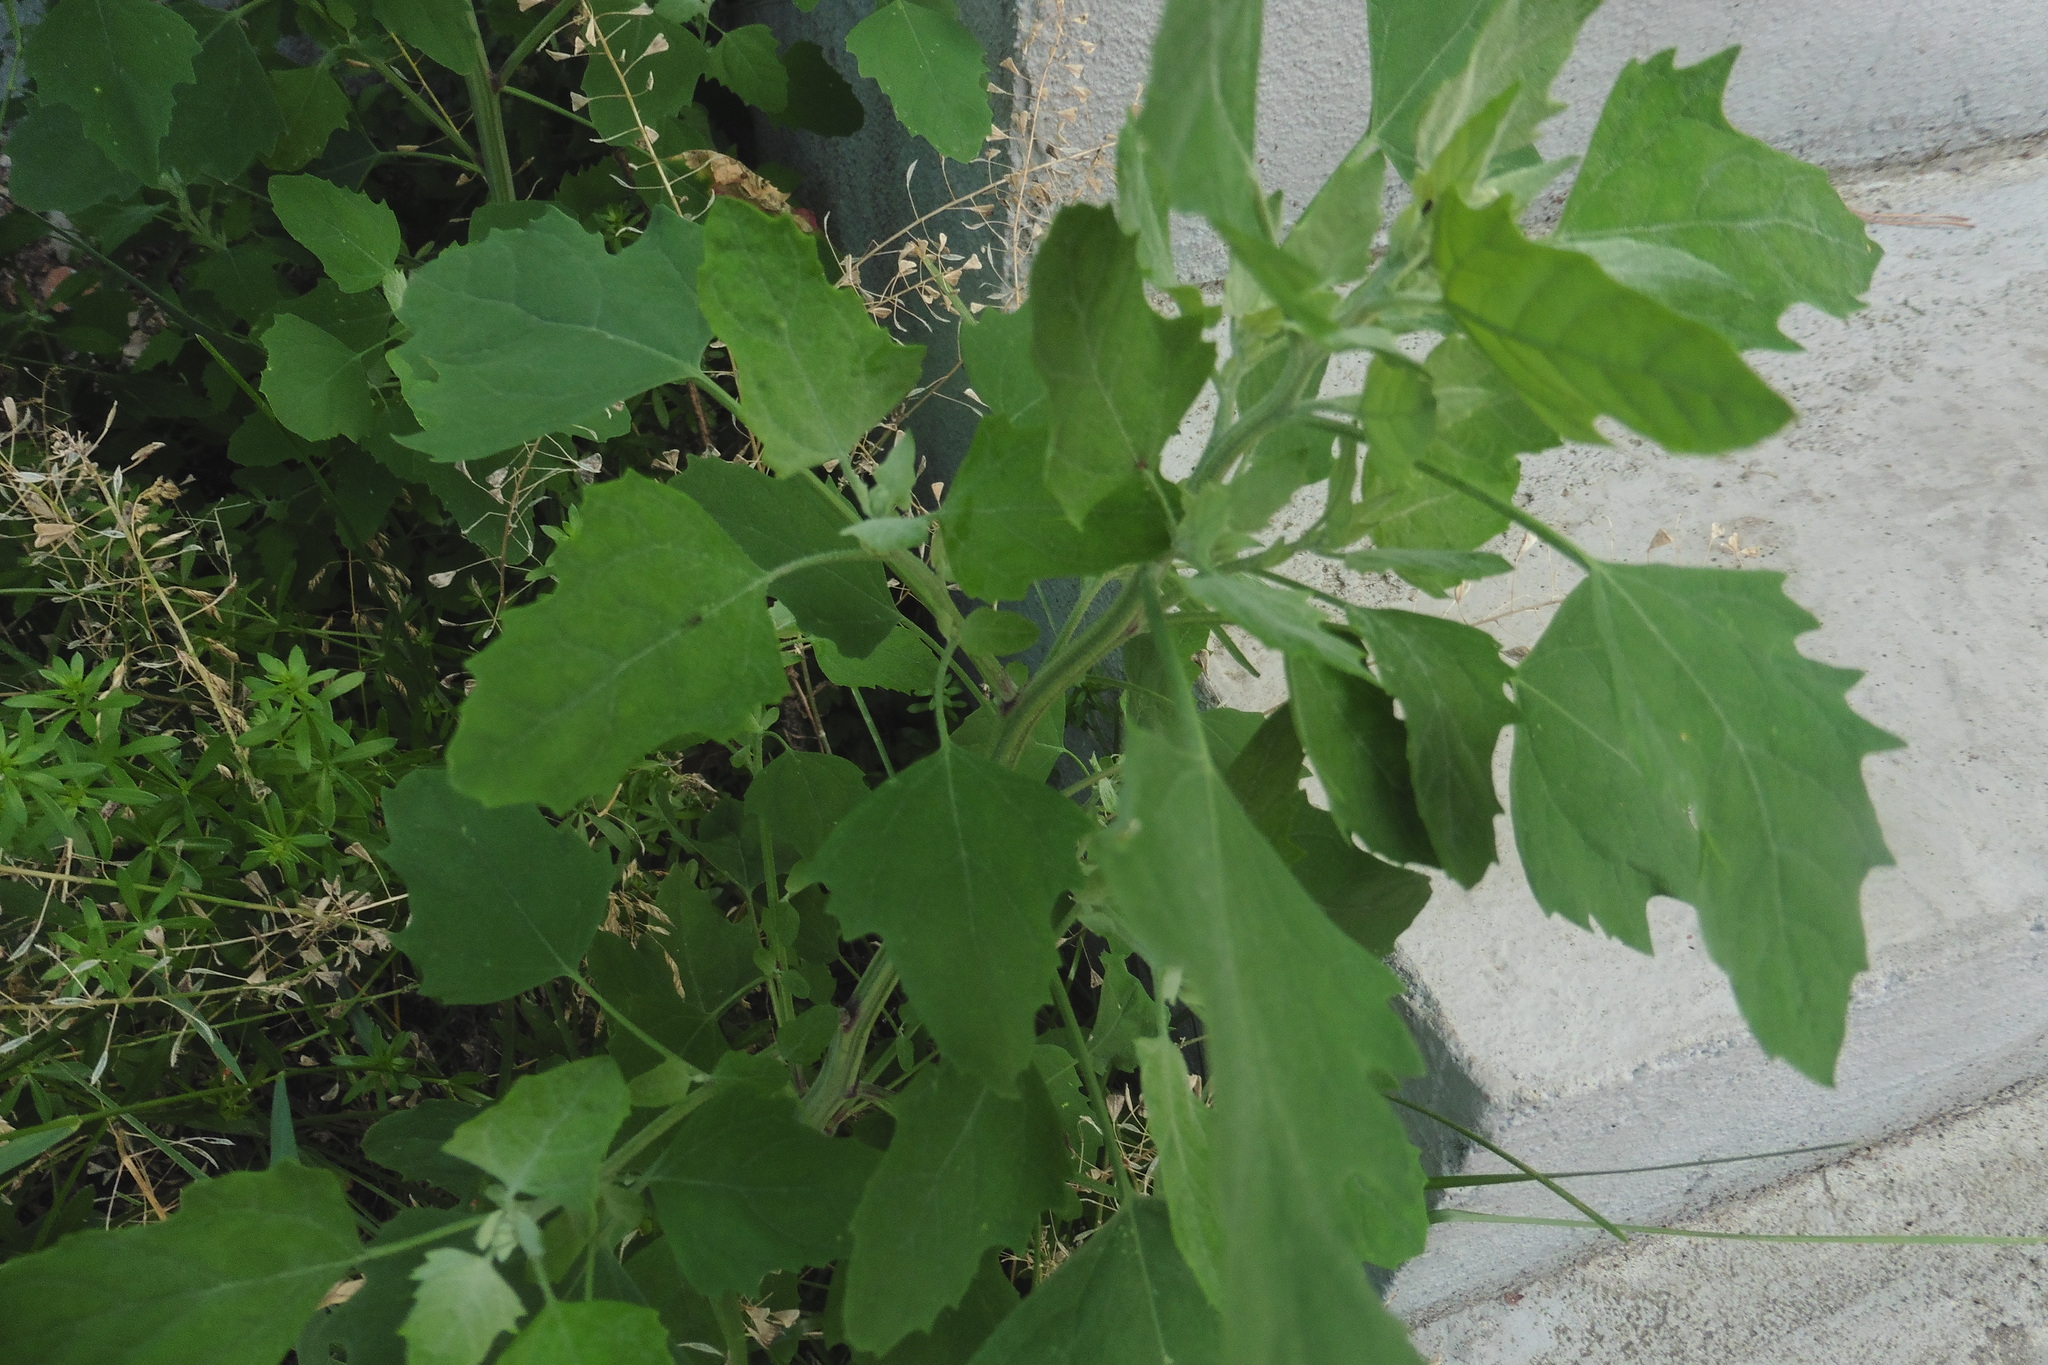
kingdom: Plantae
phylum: Tracheophyta
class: Magnoliopsida
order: Caryophyllales
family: Amaranthaceae
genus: Chenopodium
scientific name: Chenopodium album
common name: Fat-hen
